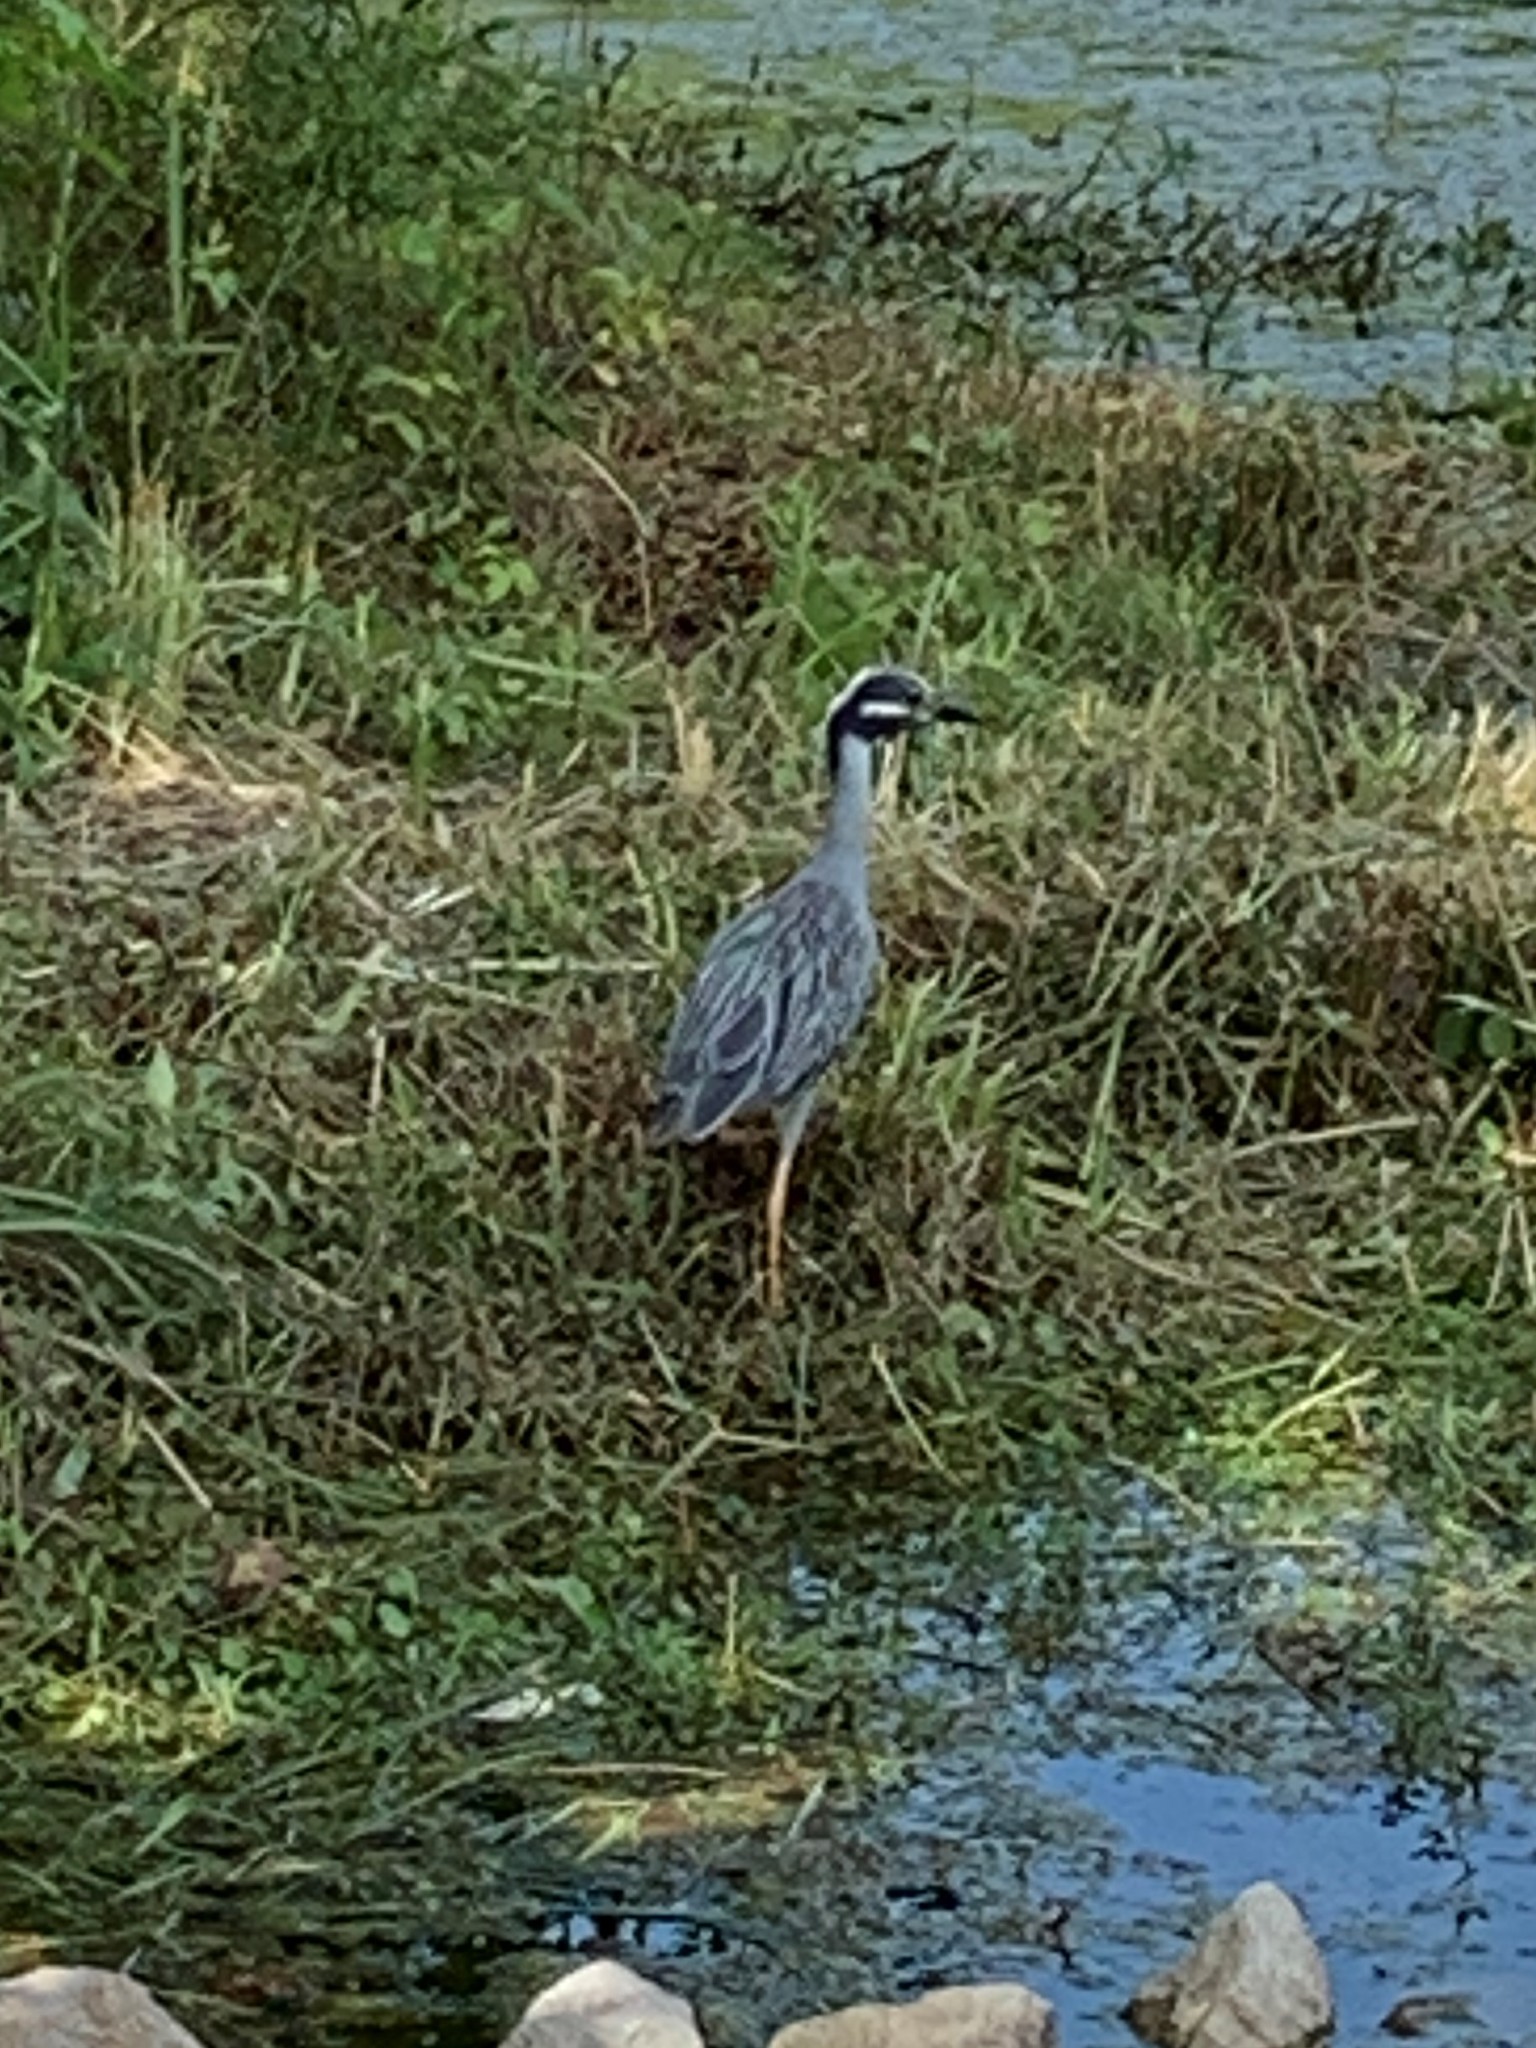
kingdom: Animalia
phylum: Chordata
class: Aves
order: Pelecaniformes
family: Ardeidae
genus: Nyctanassa
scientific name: Nyctanassa violacea
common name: Yellow-crowned night heron
